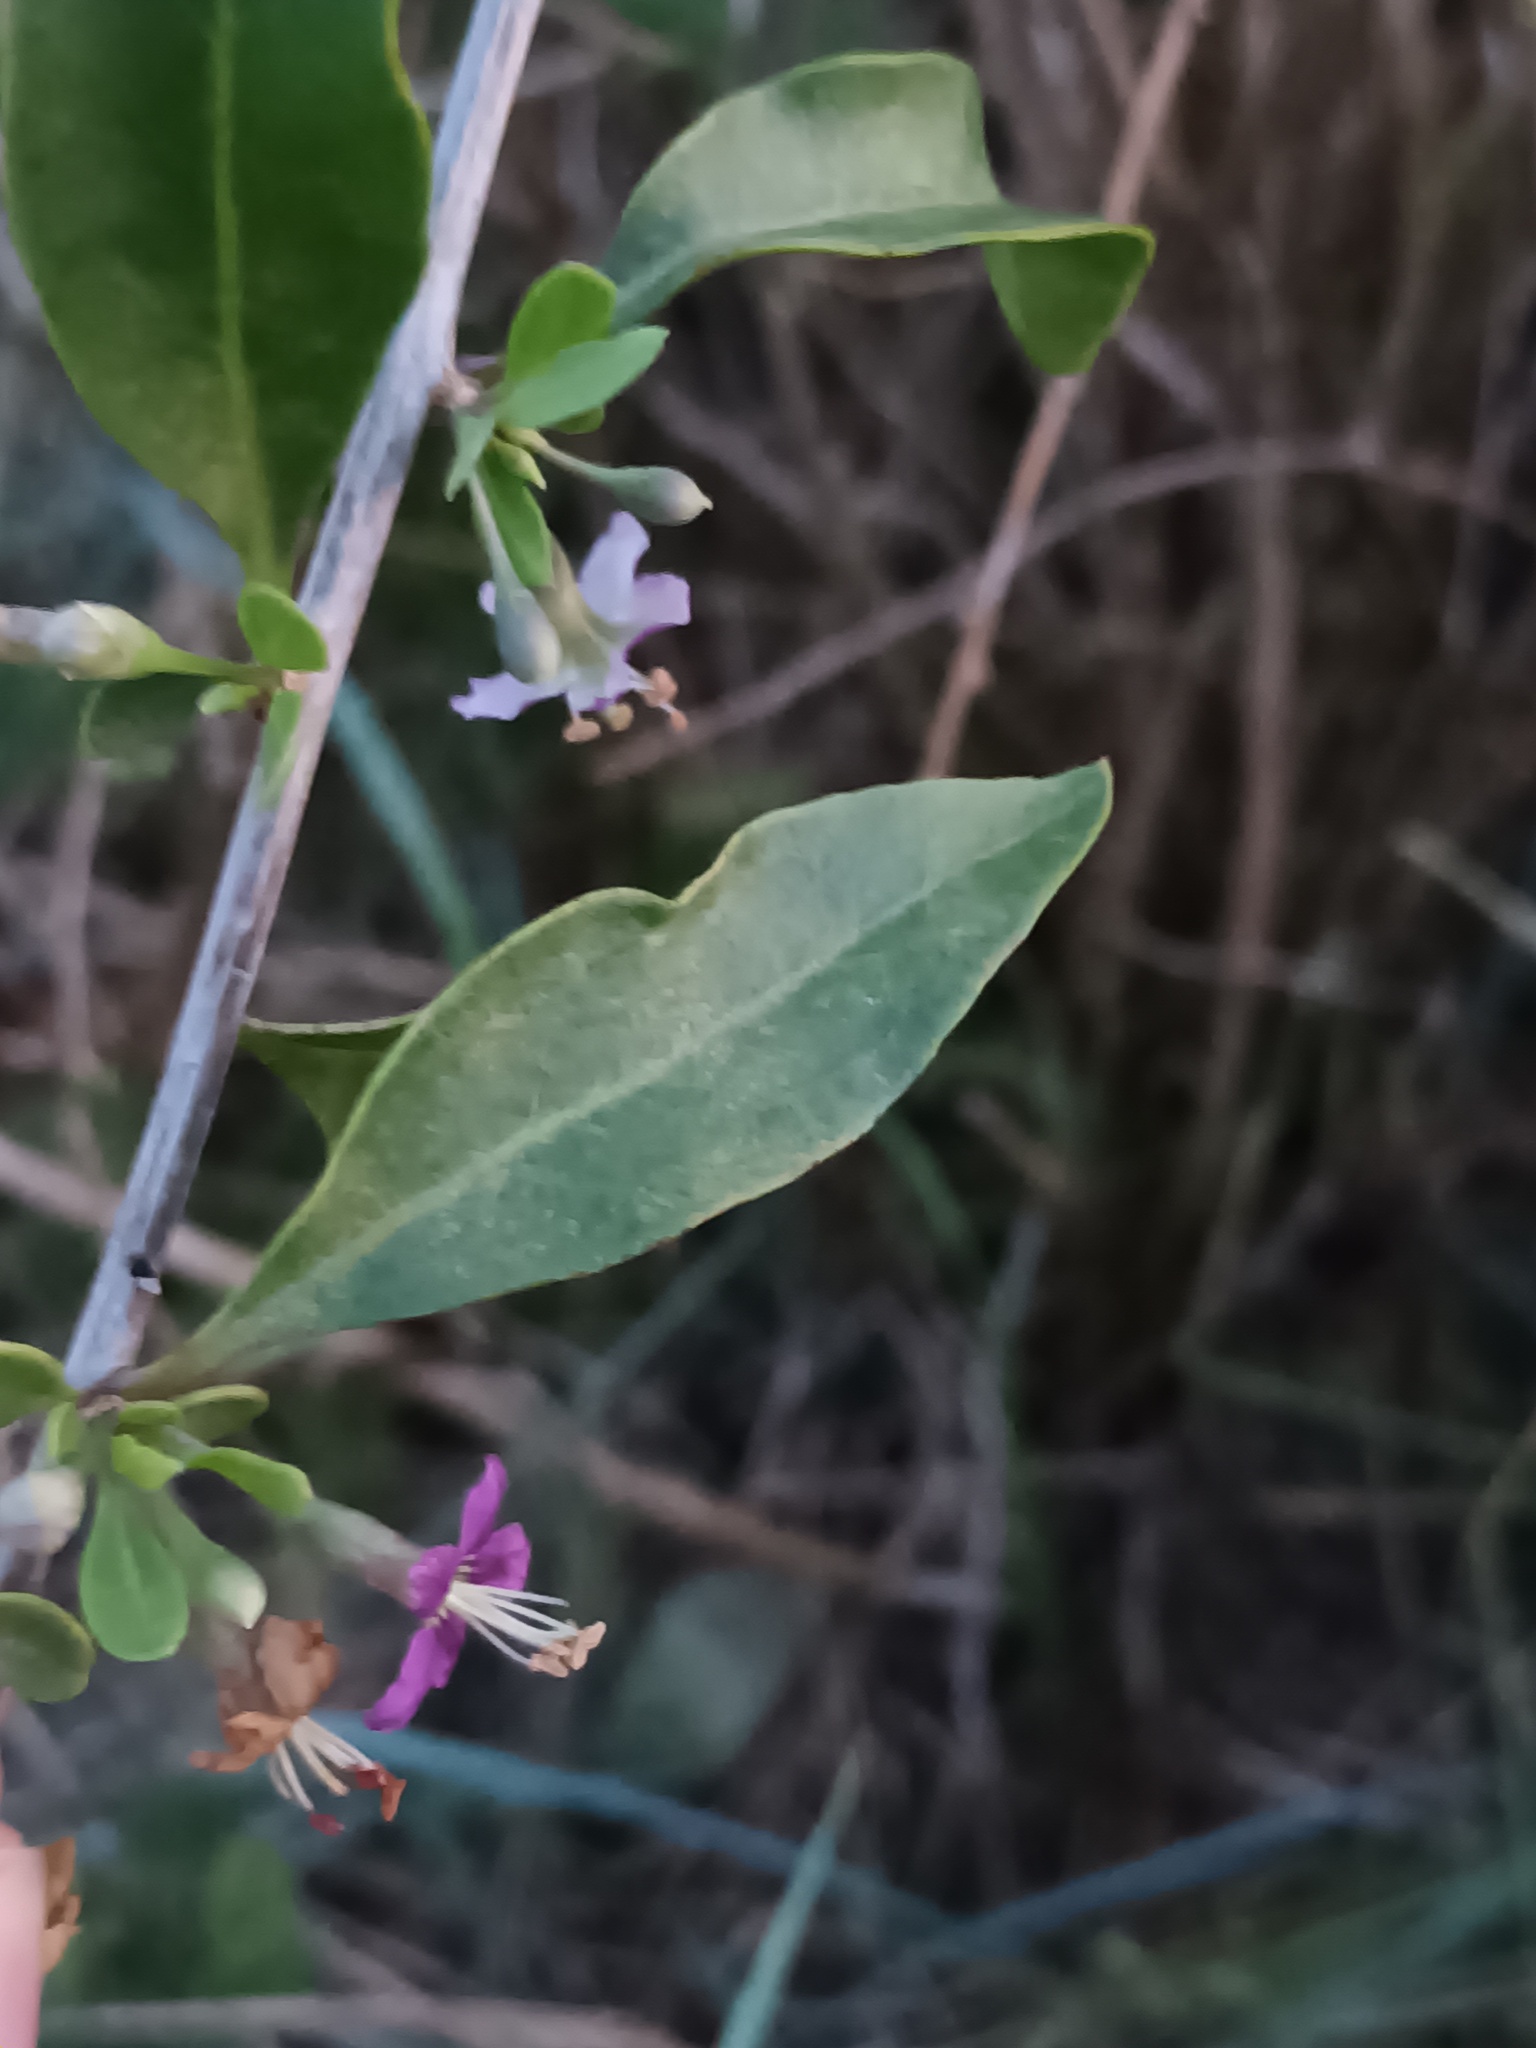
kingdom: Plantae
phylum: Tracheophyta
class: Magnoliopsida
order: Solanales
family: Solanaceae
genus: Lycium
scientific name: Lycium barbarum
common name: Duke of argyll's teaplant
